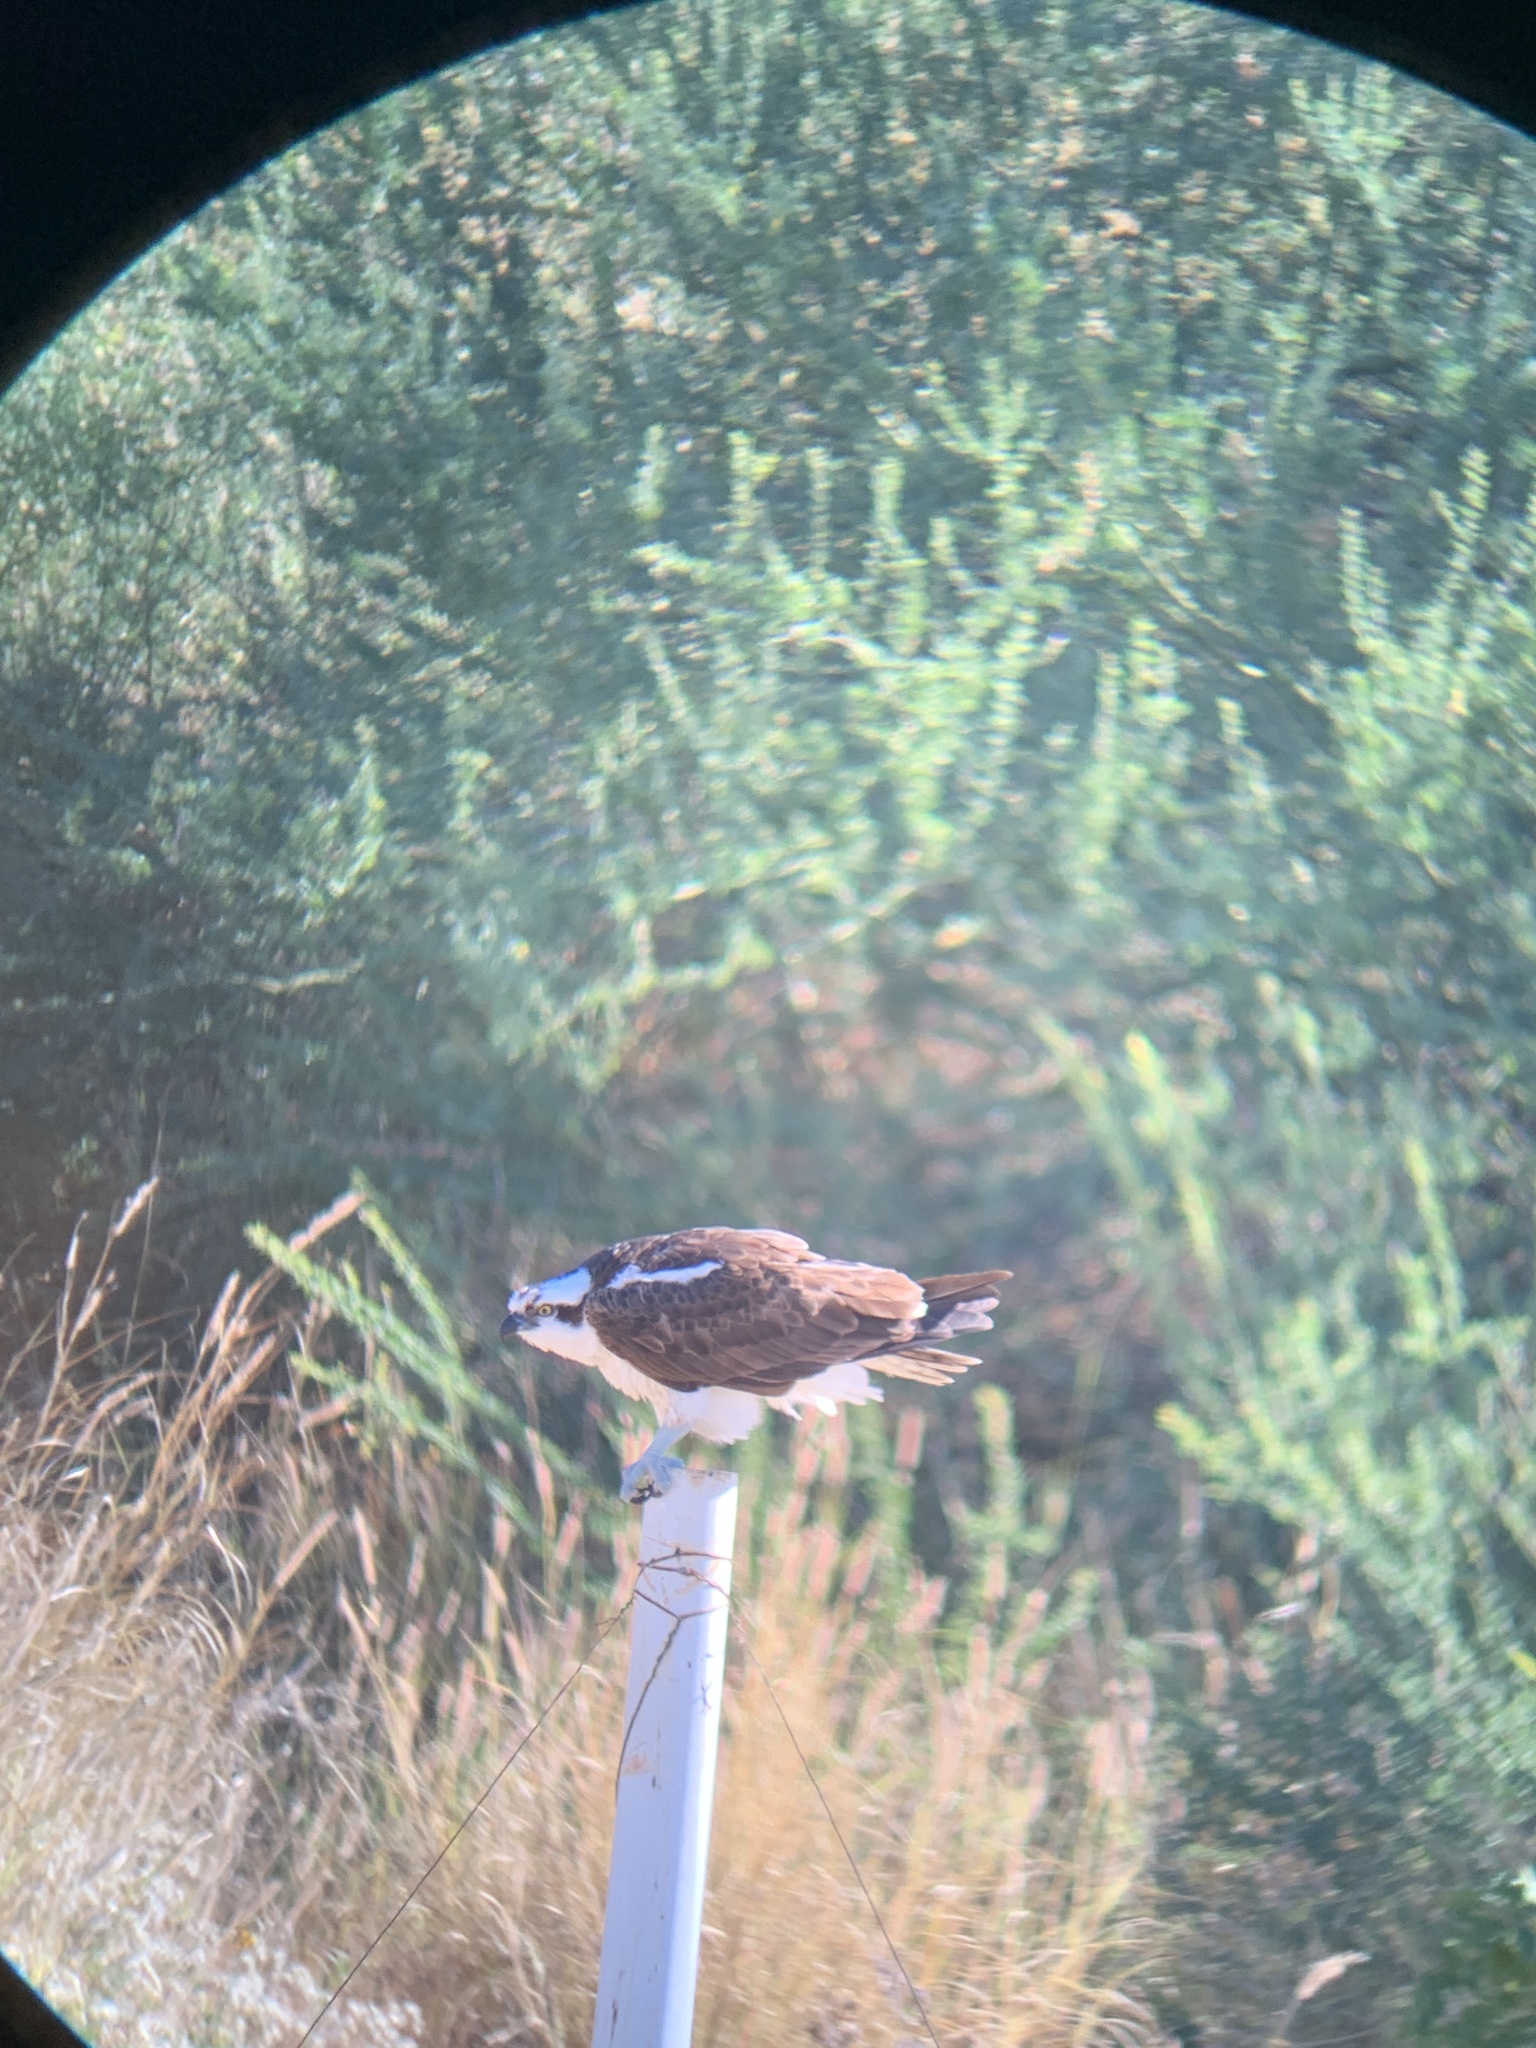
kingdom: Animalia
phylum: Chordata
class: Aves
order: Accipitriformes
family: Pandionidae
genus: Pandion
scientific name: Pandion haliaetus
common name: Osprey
